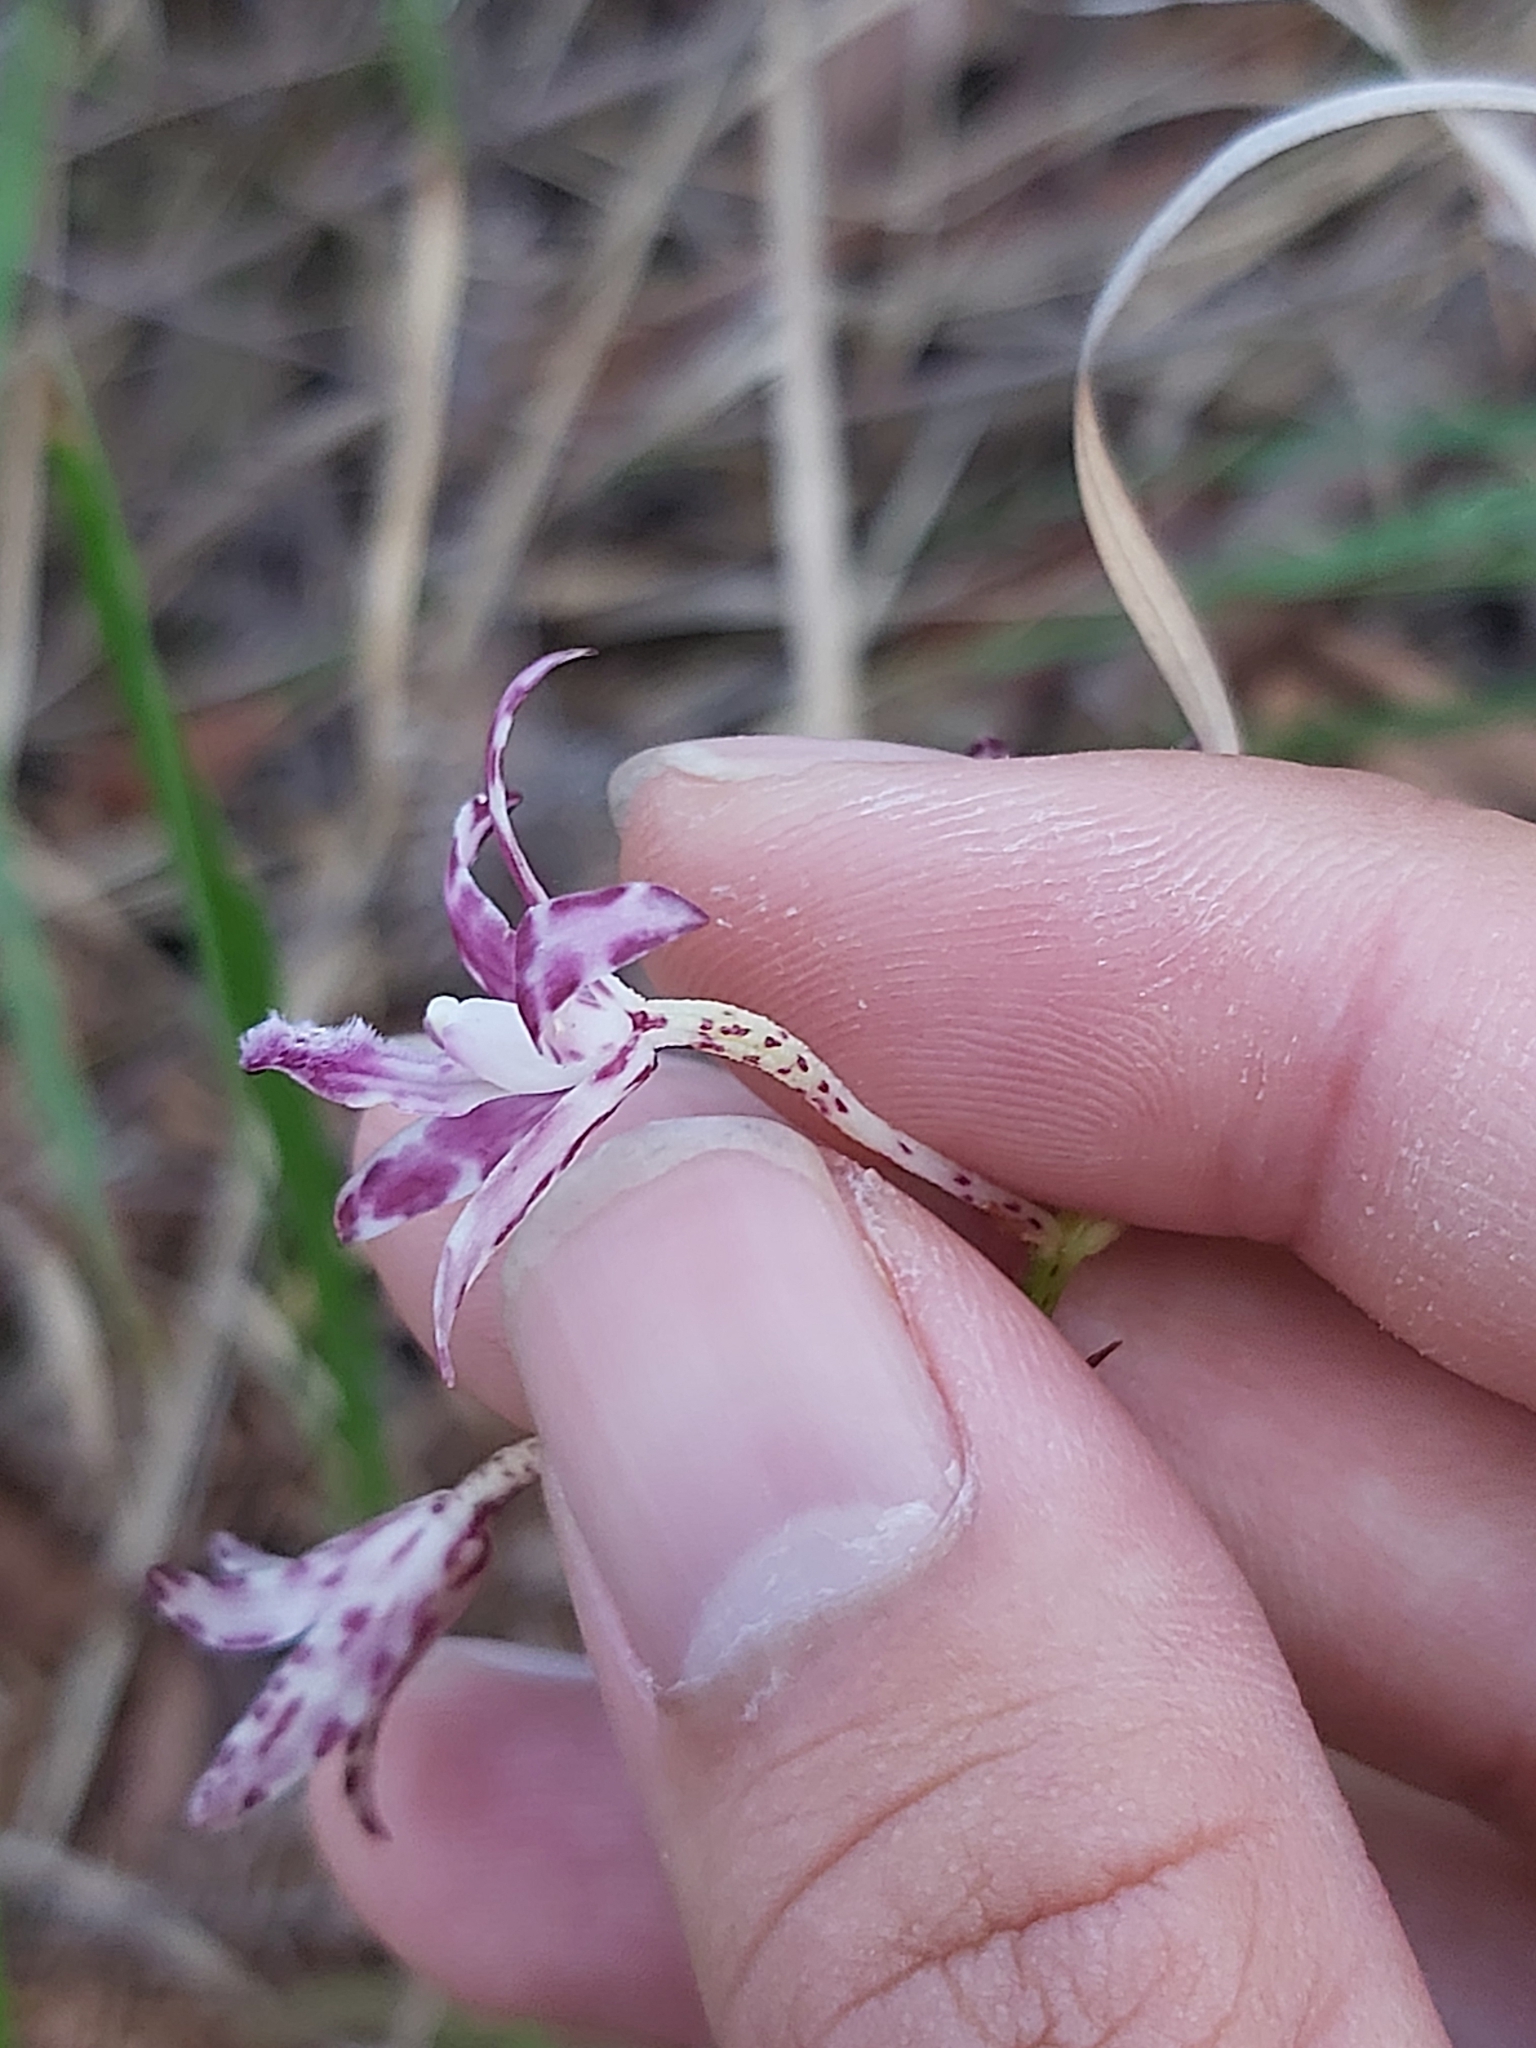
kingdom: Plantae
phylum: Tracheophyta
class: Liliopsida
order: Asparagales
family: Orchidaceae
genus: Dipodium
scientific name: Dipodium variegatum
